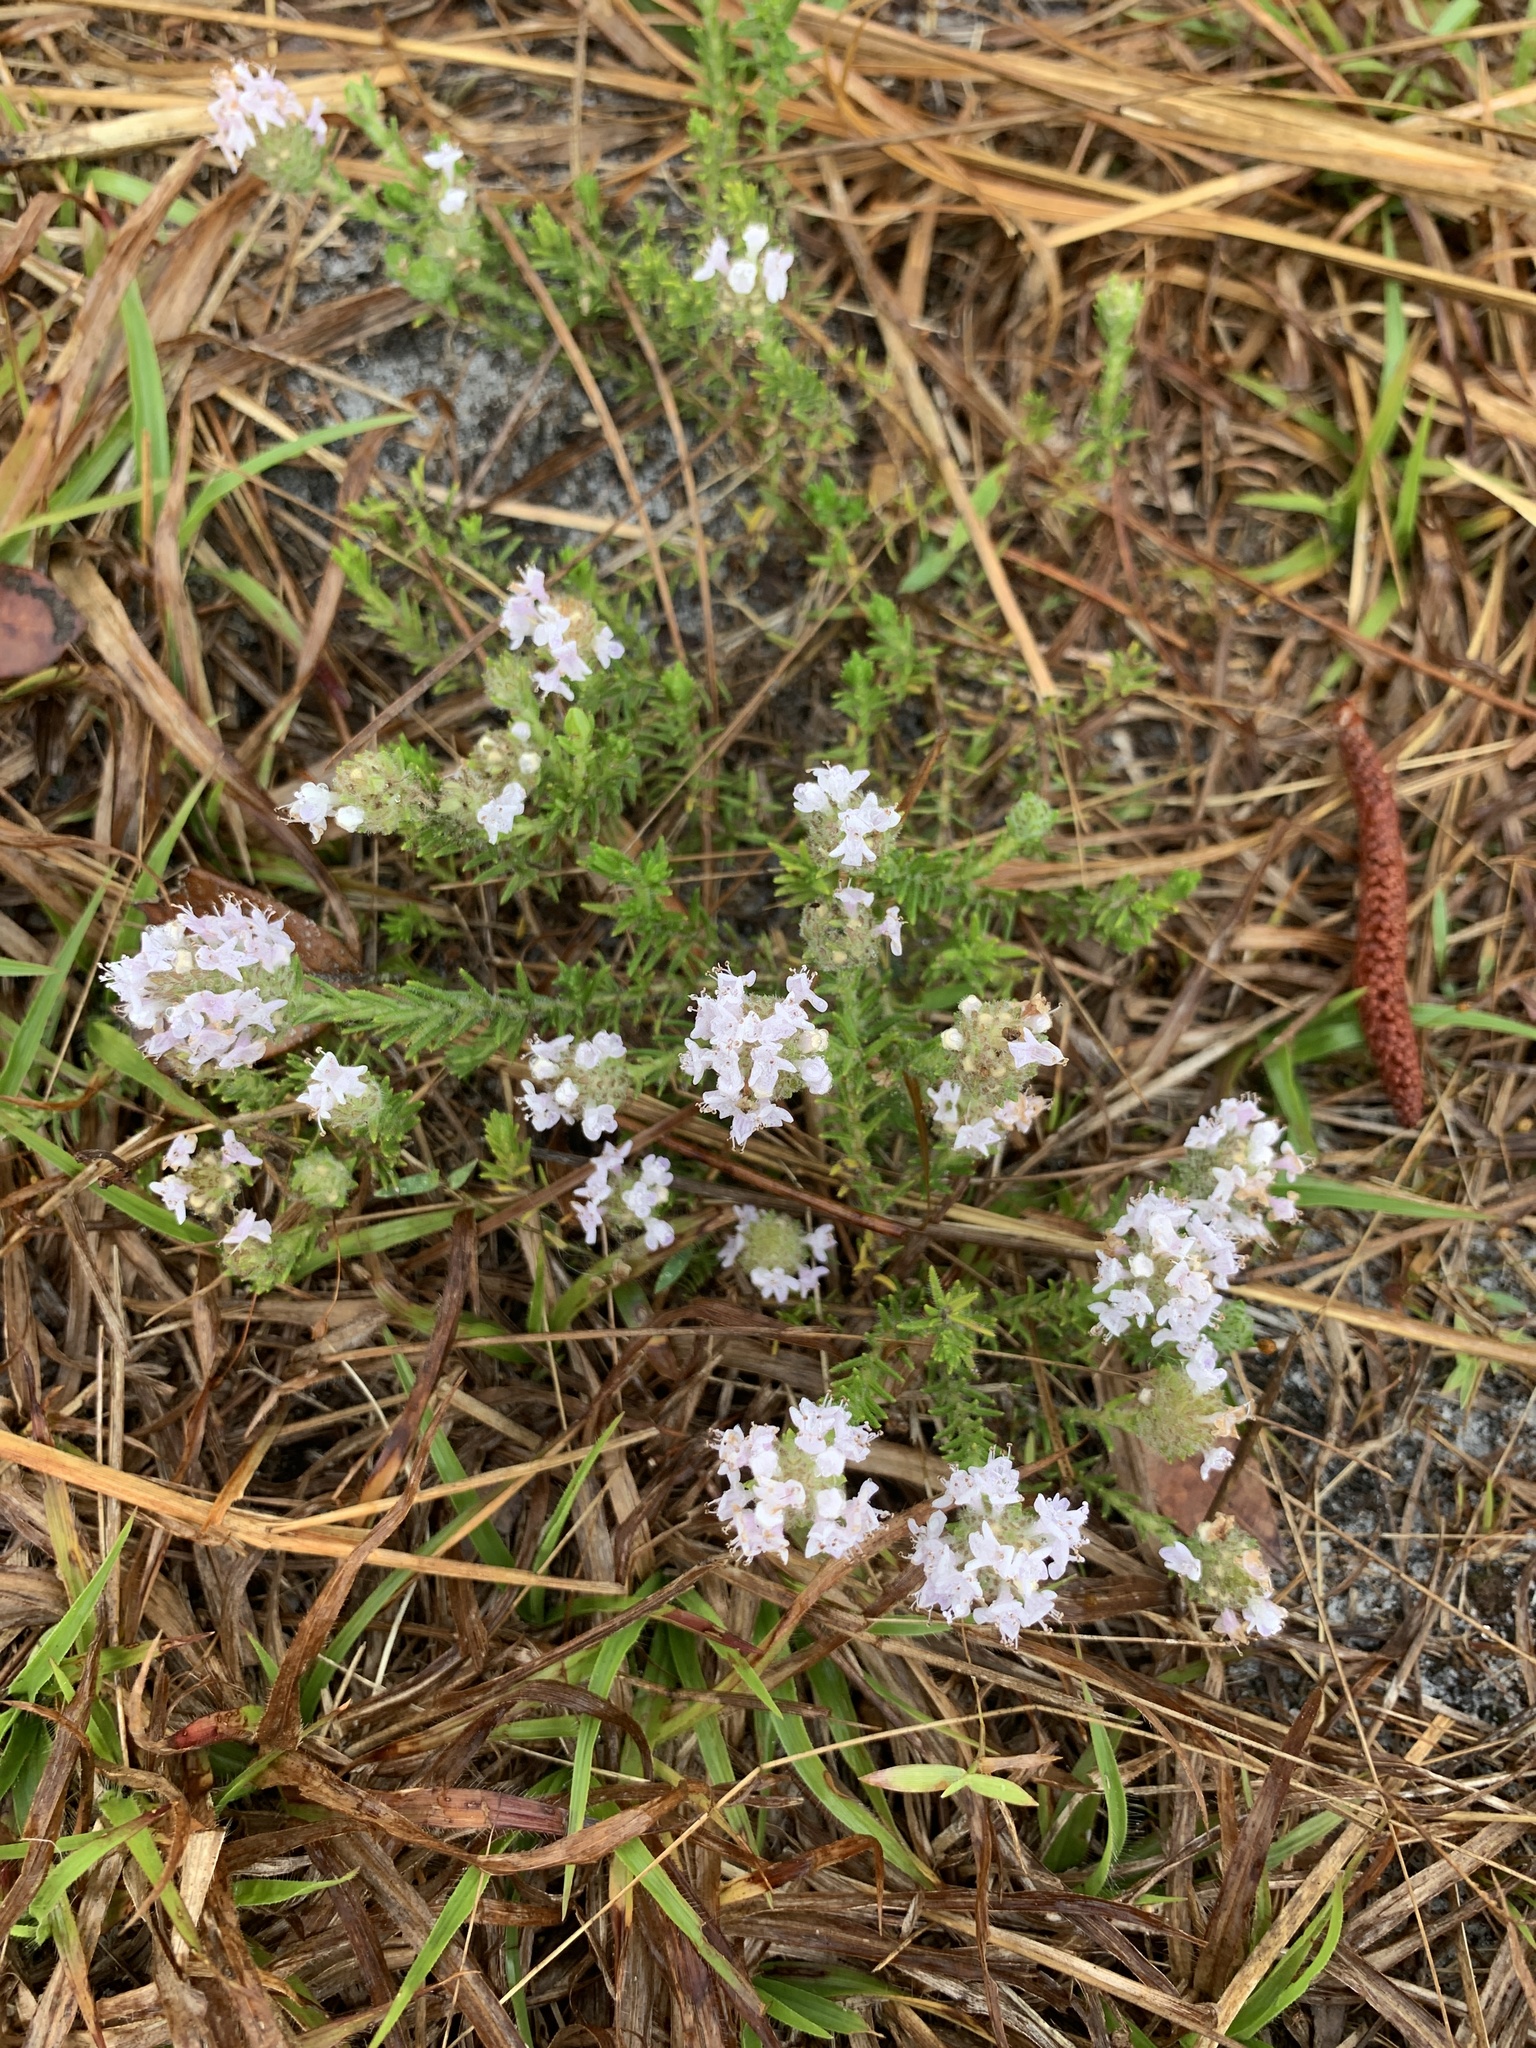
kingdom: Plantae
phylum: Tracheophyta
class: Magnoliopsida
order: Lamiales
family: Lamiaceae
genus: Piloblephis
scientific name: Piloblephis rigida
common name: Wild pennyroyal
